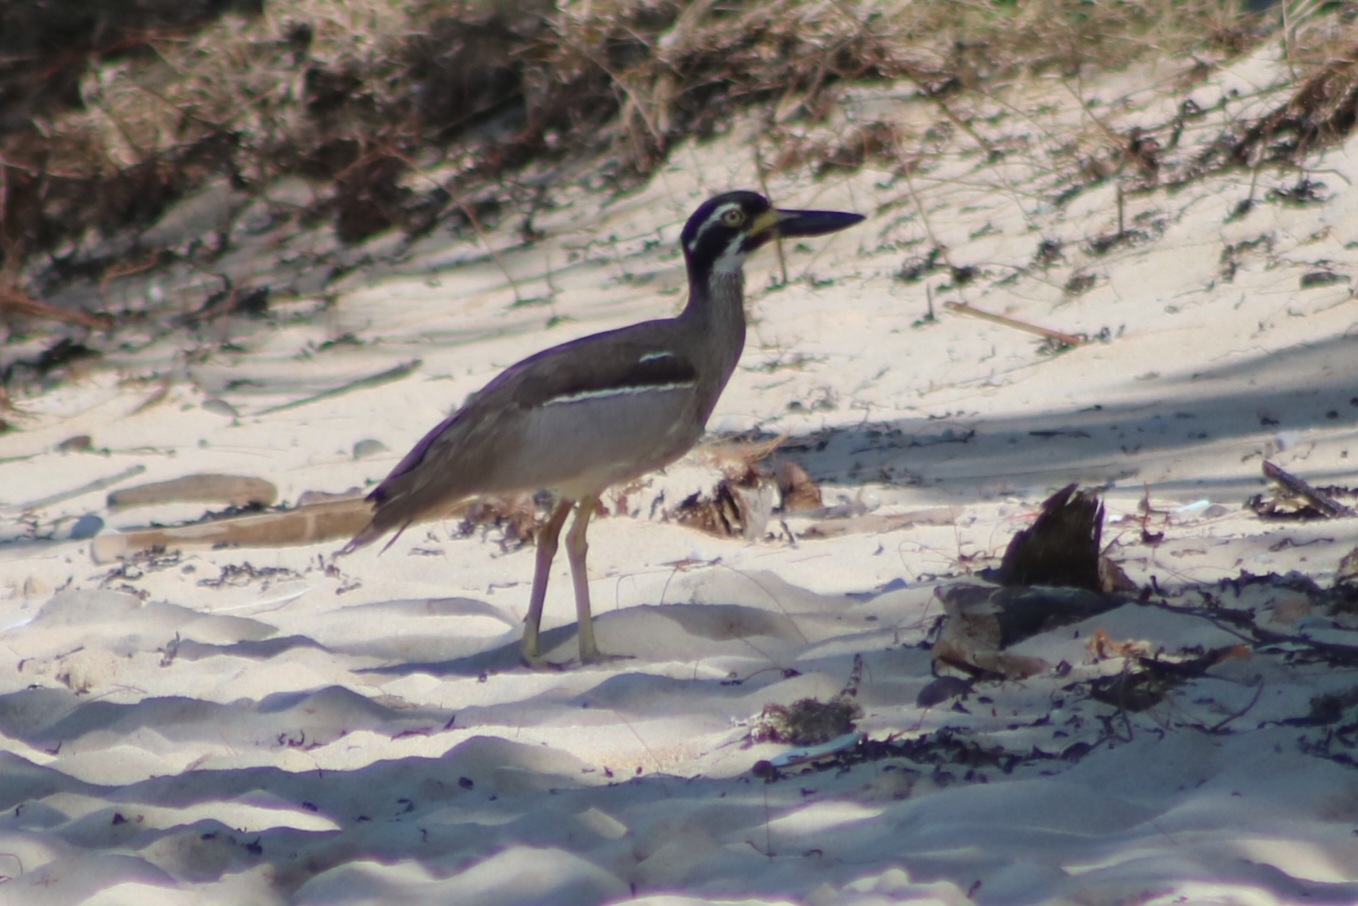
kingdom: Animalia
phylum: Chordata
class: Aves
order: Charadriiformes
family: Burhinidae
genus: Esacus
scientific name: Esacus magnirostris
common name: Beach stone-curlew
